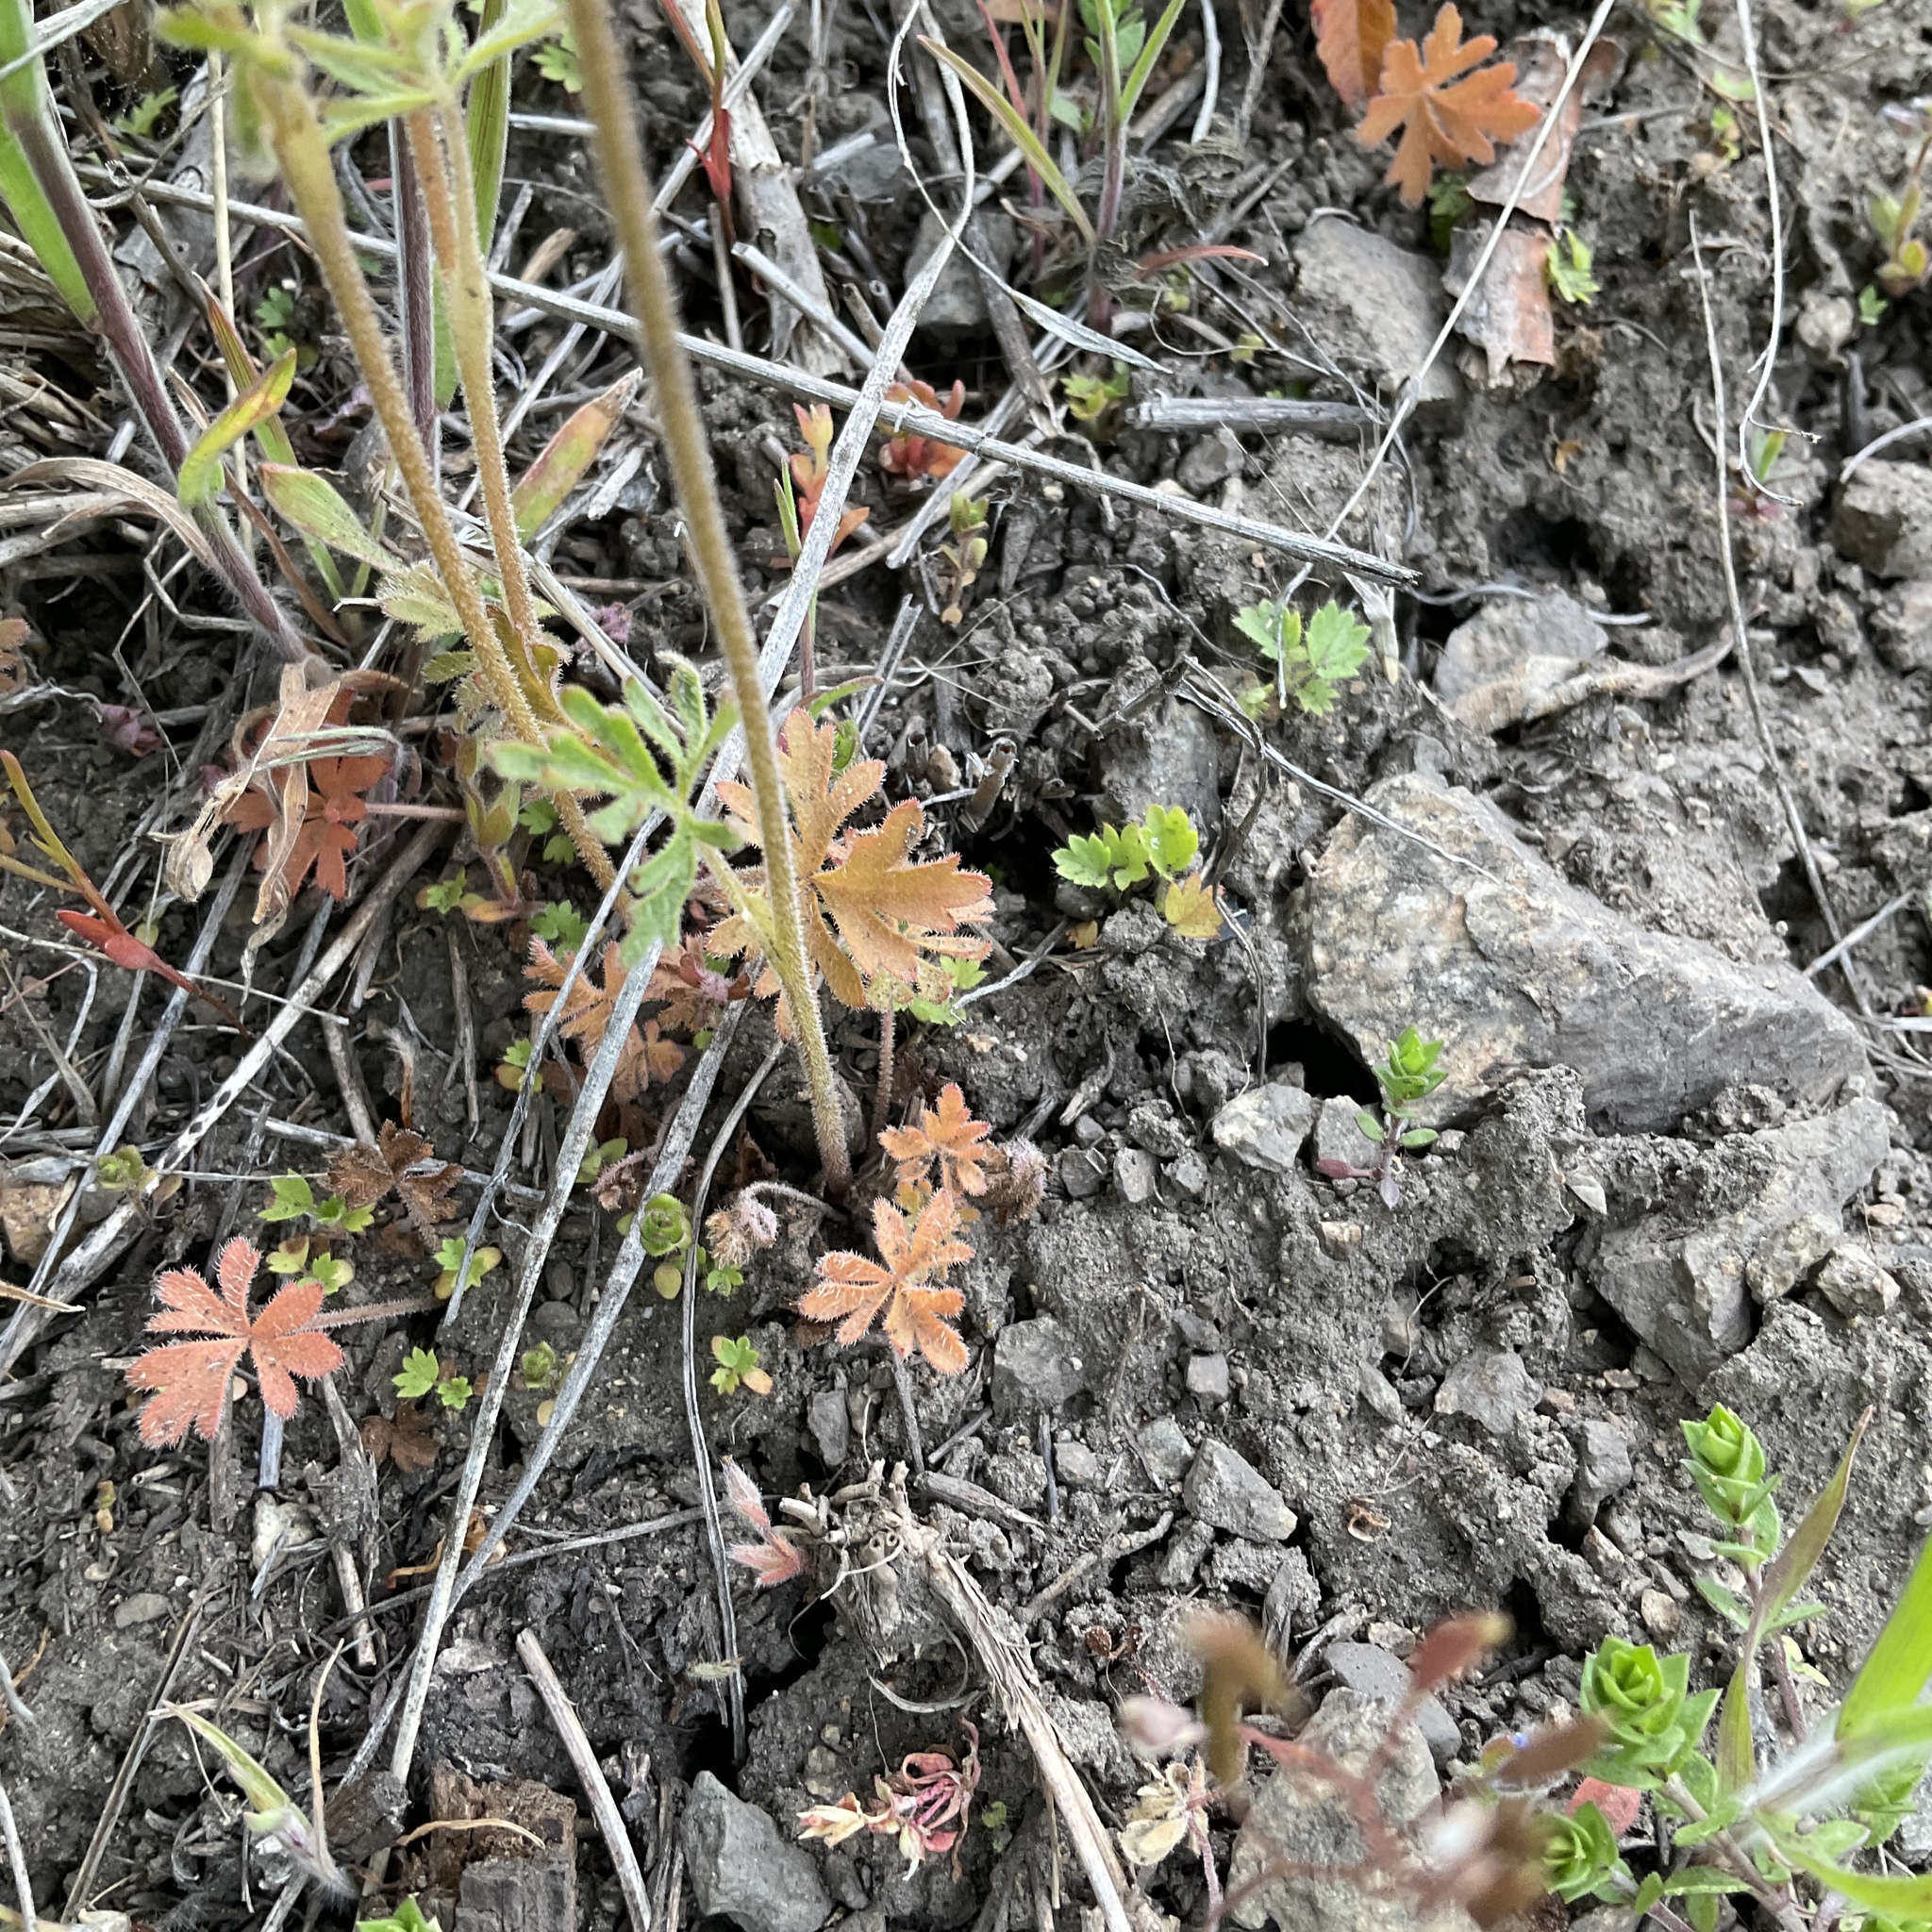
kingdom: Plantae
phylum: Tracheophyta
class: Magnoliopsida
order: Saxifragales
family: Saxifragaceae
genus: Lithophragma
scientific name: Lithophragma parviflorum
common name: Small-flowered fringe-cup
